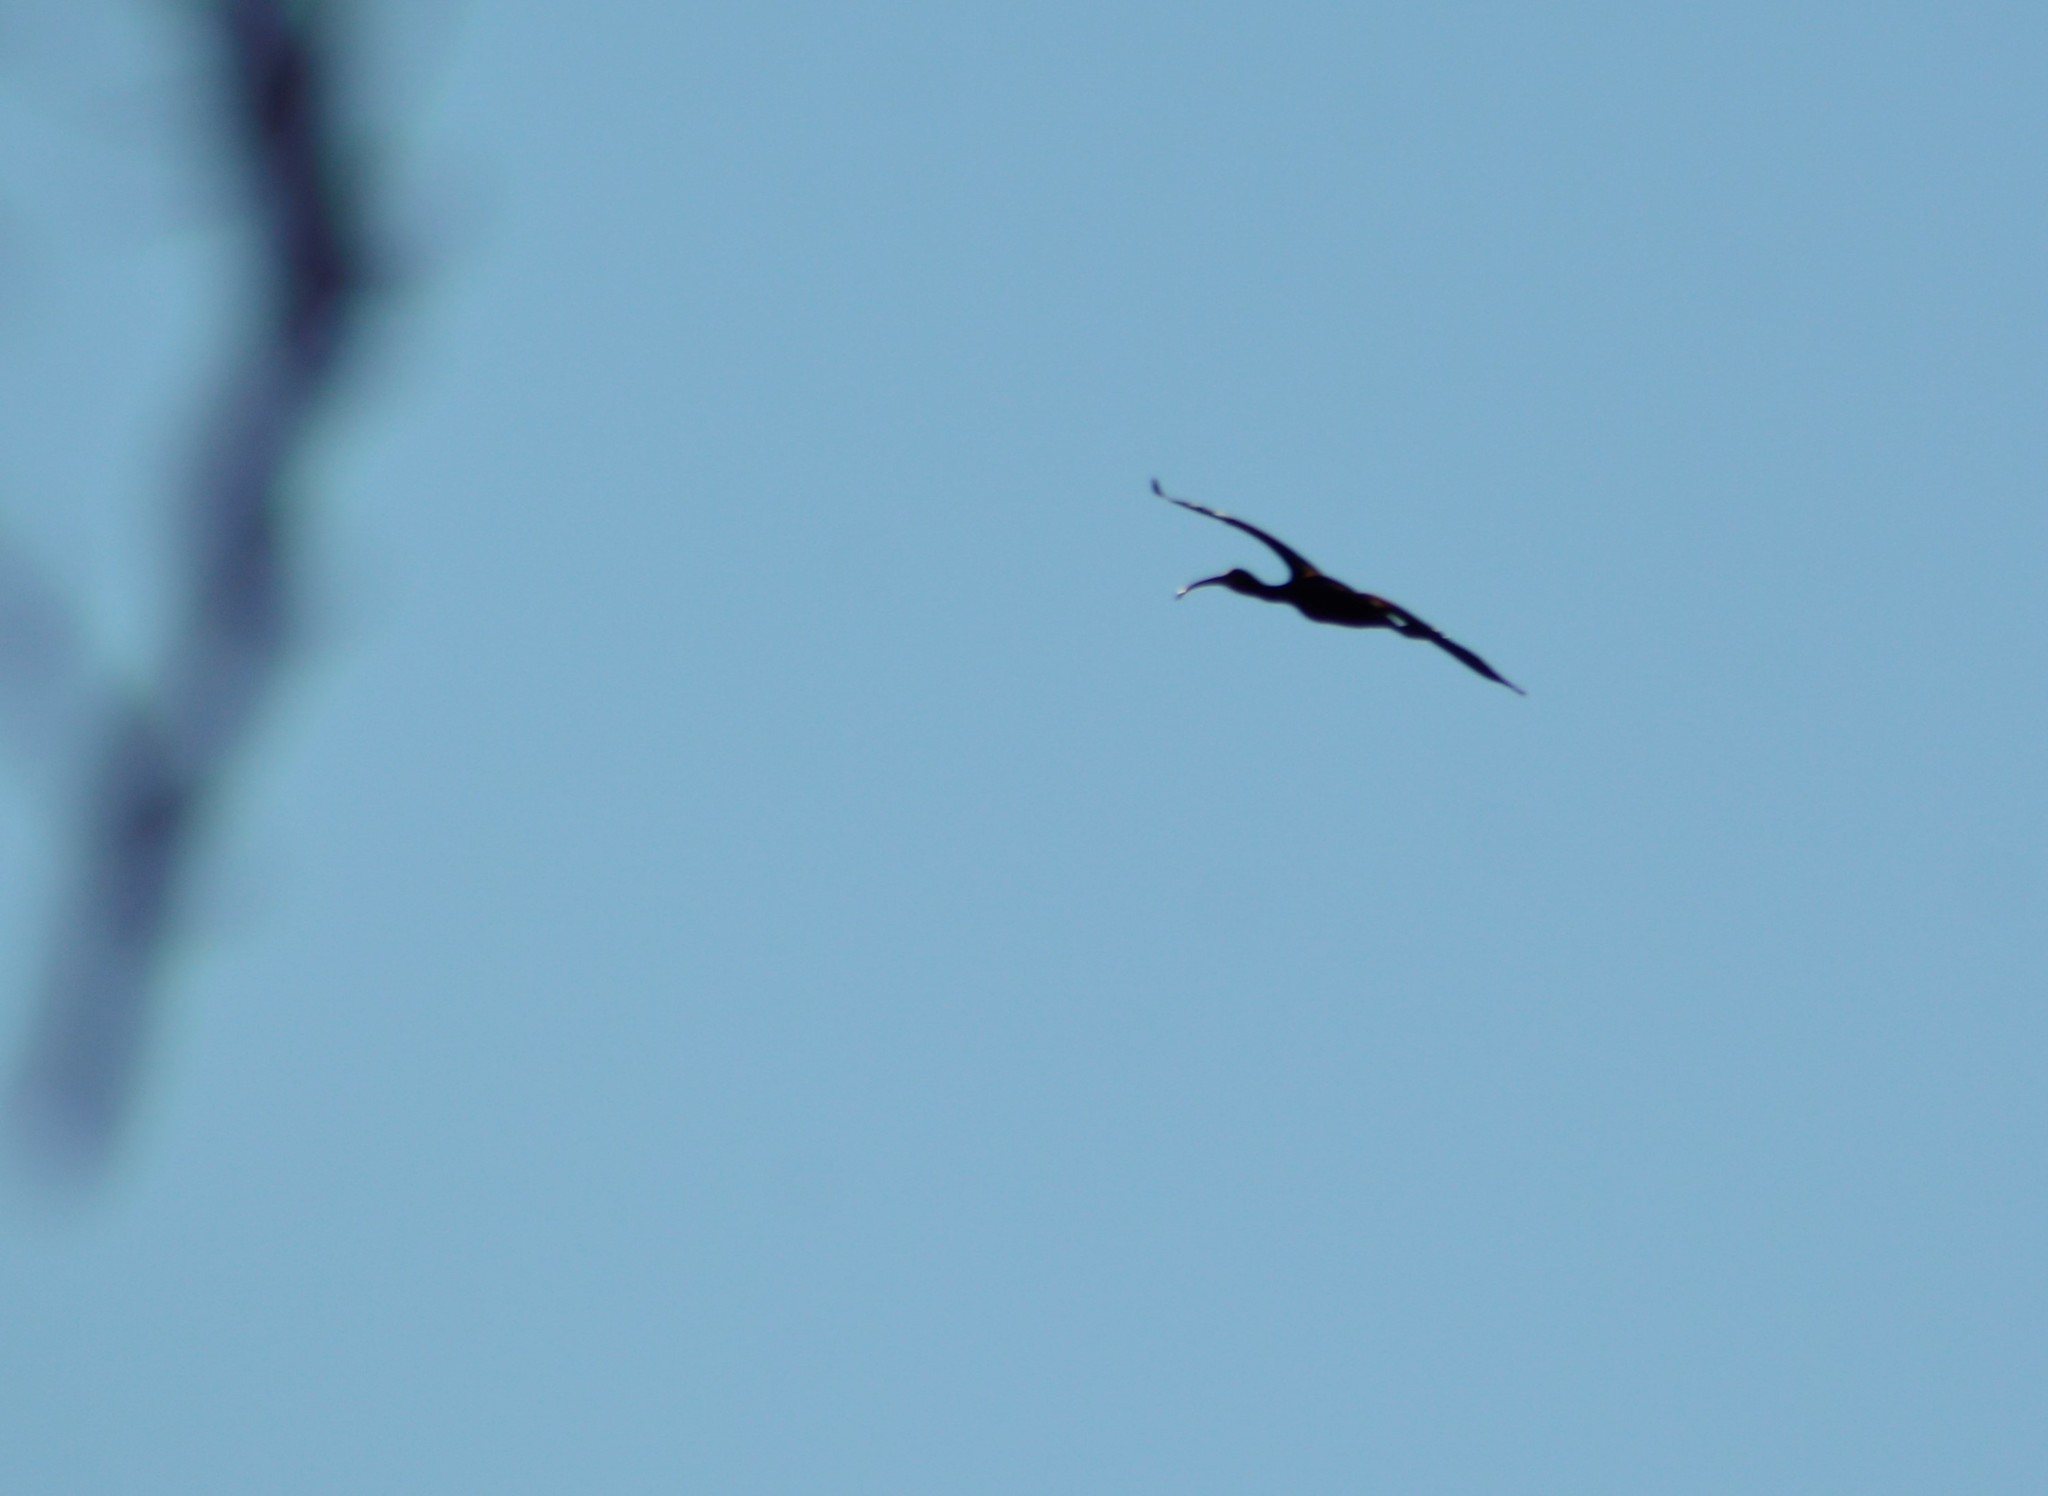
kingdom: Animalia
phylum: Chordata
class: Aves
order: Pelecaniformes
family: Threskiornithidae
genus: Plegadis
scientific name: Plegadis chihi
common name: White-faced ibis
